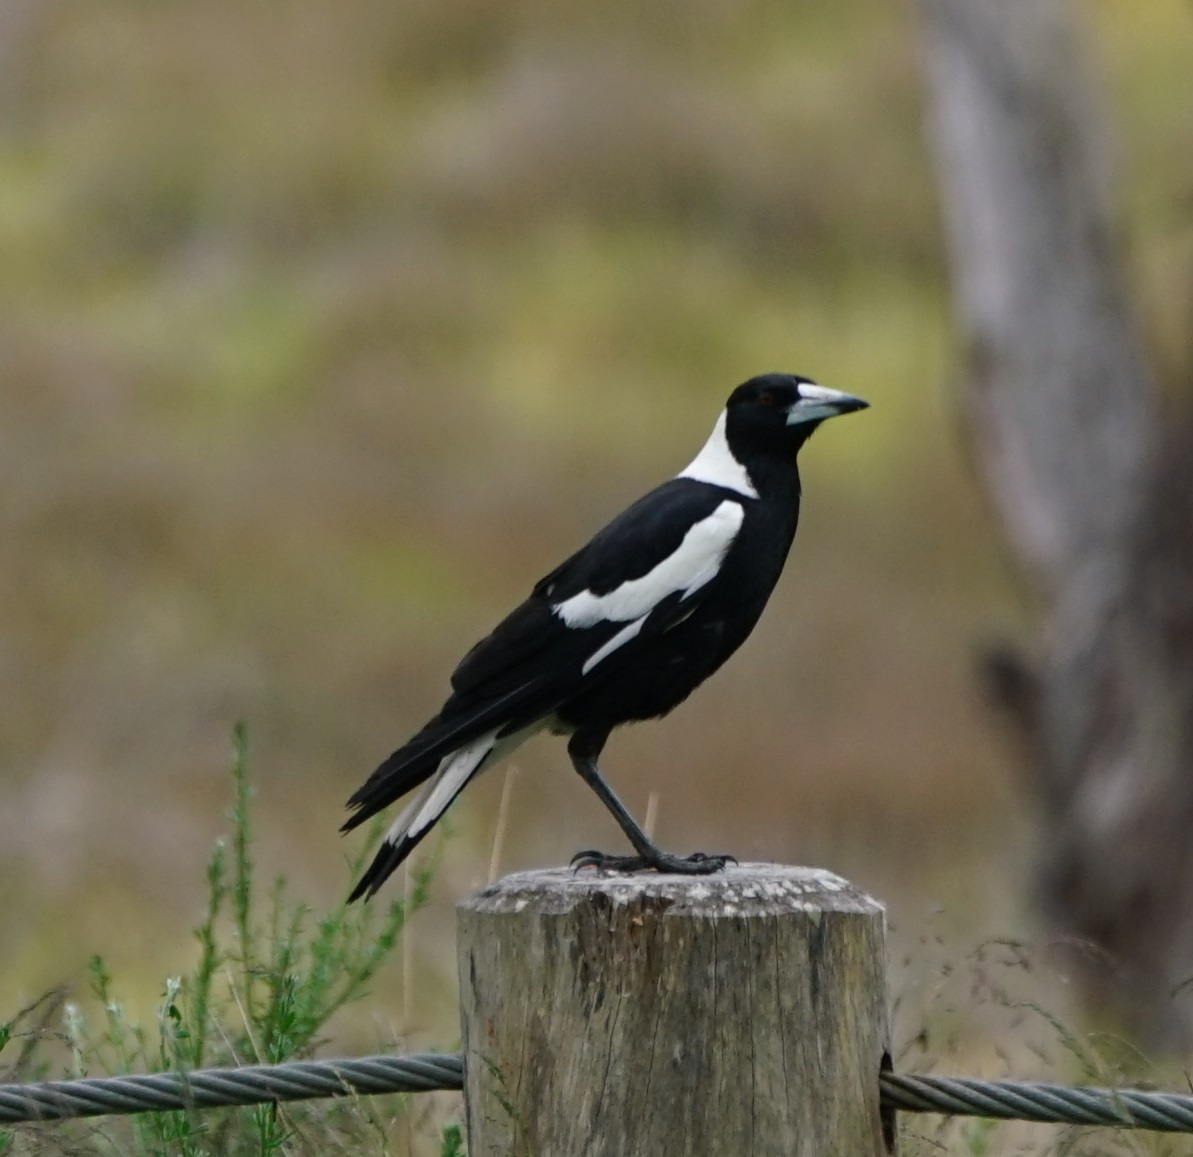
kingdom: Animalia
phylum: Chordata
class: Aves
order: Passeriformes
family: Cracticidae
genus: Gymnorhina
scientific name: Gymnorhina tibicen
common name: Australian magpie
